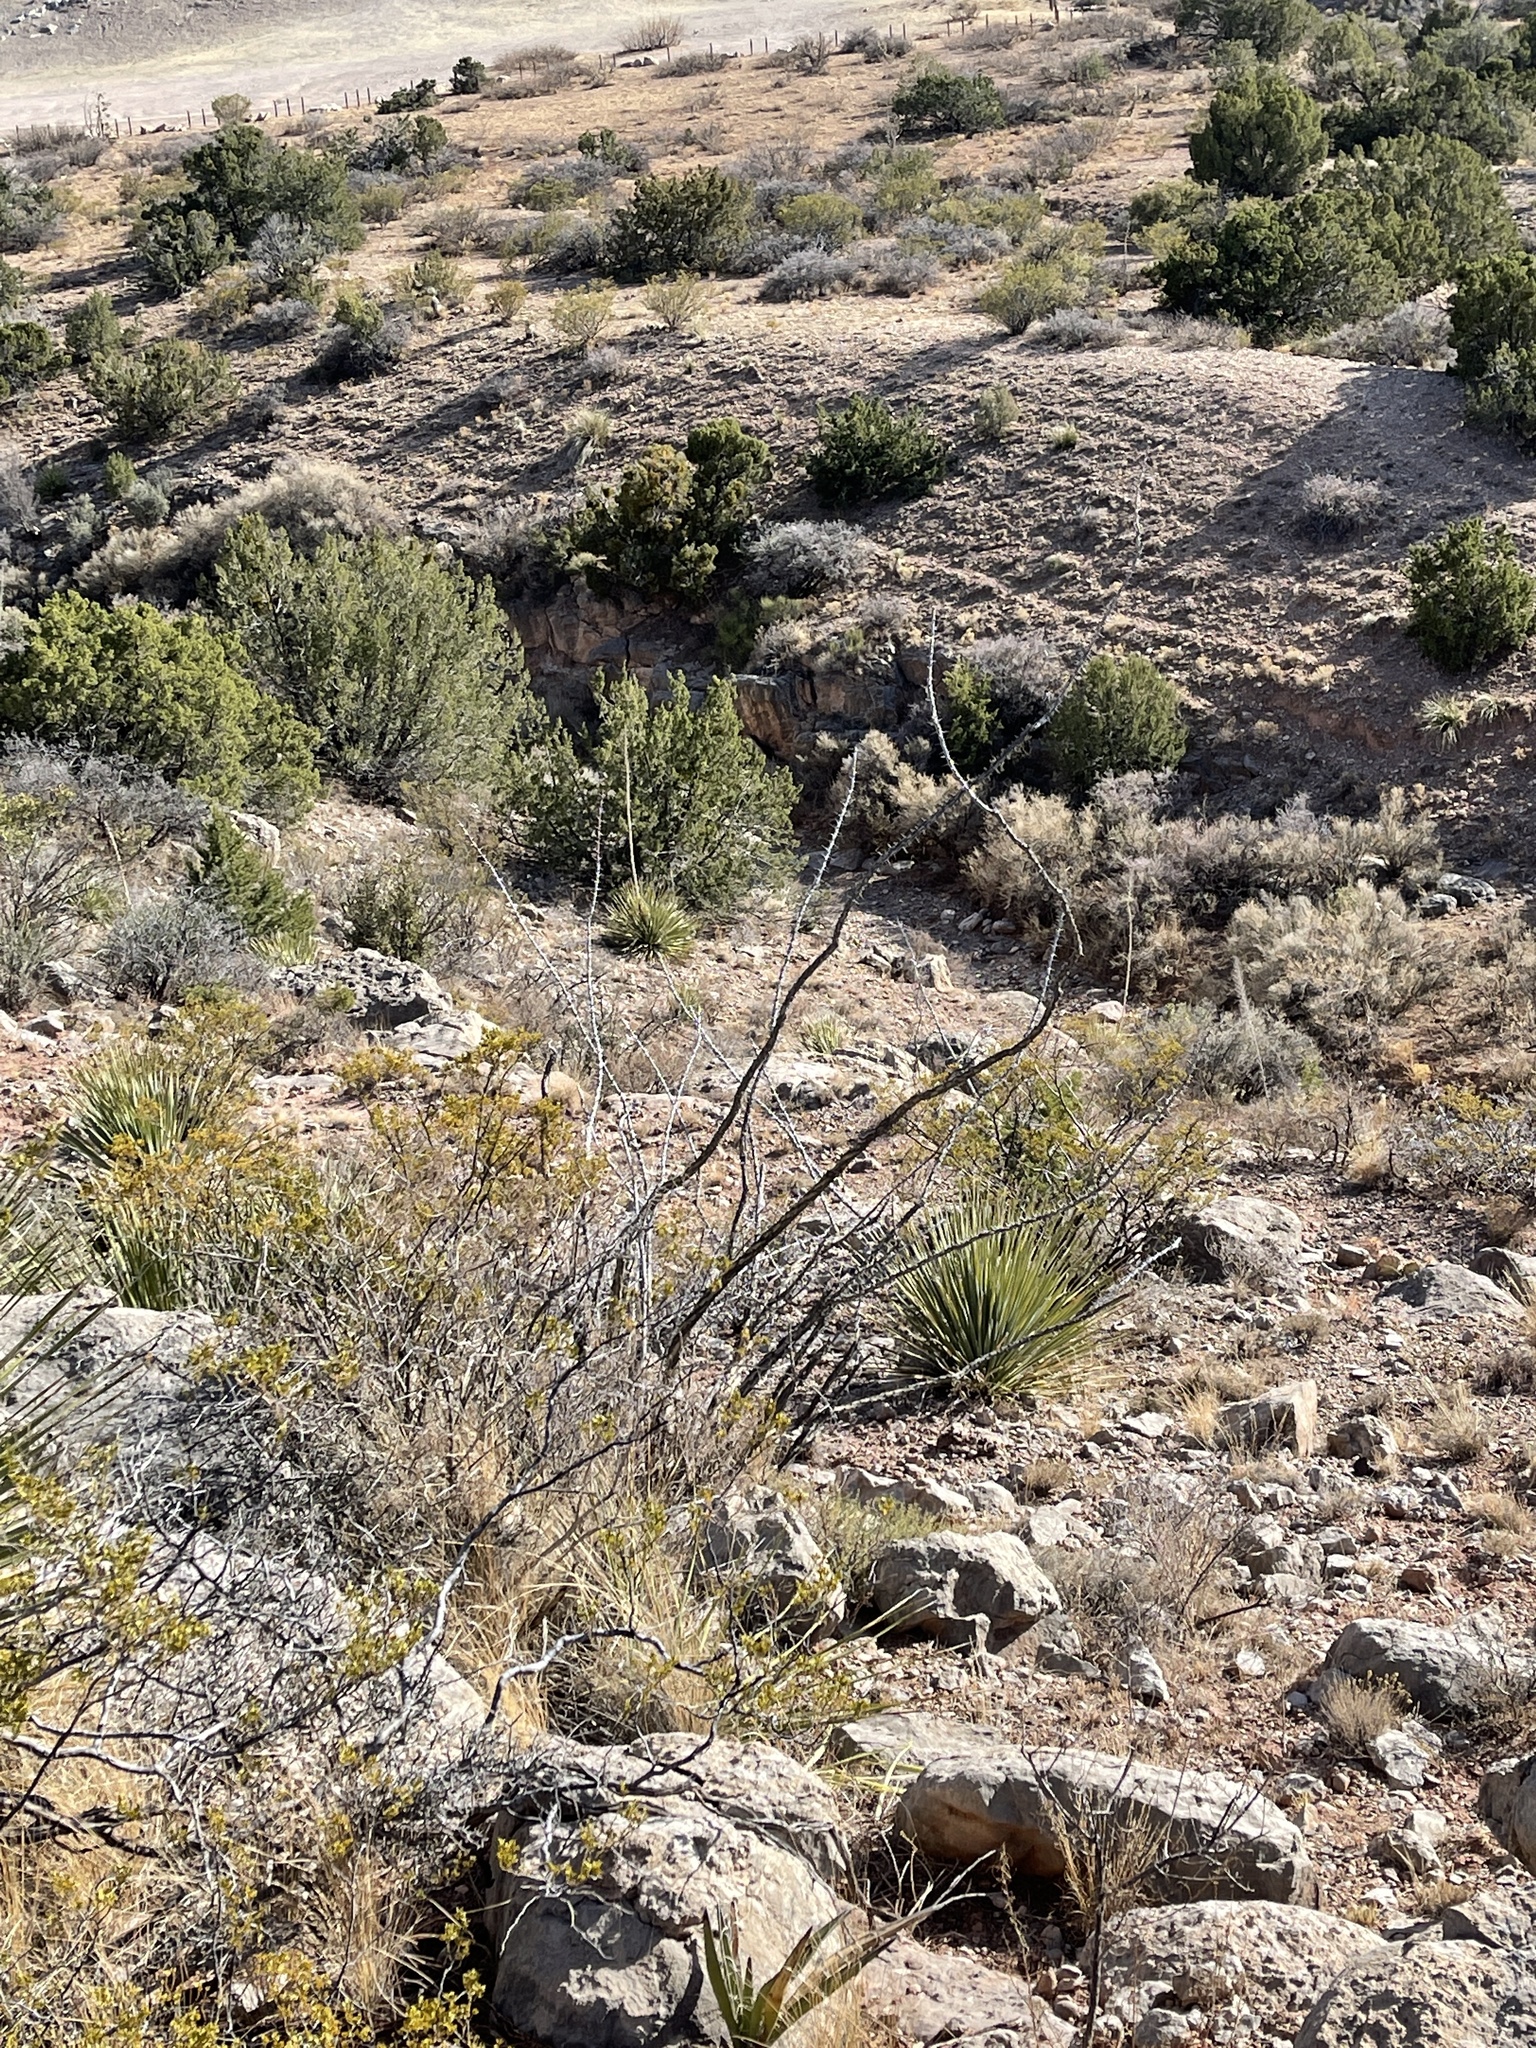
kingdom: Plantae
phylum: Tracheophyta
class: Magnoliopsida
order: Ericales
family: Fouquieriaceae
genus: Fouquieria
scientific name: Fouquieria splendens
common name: Vine-cactus
